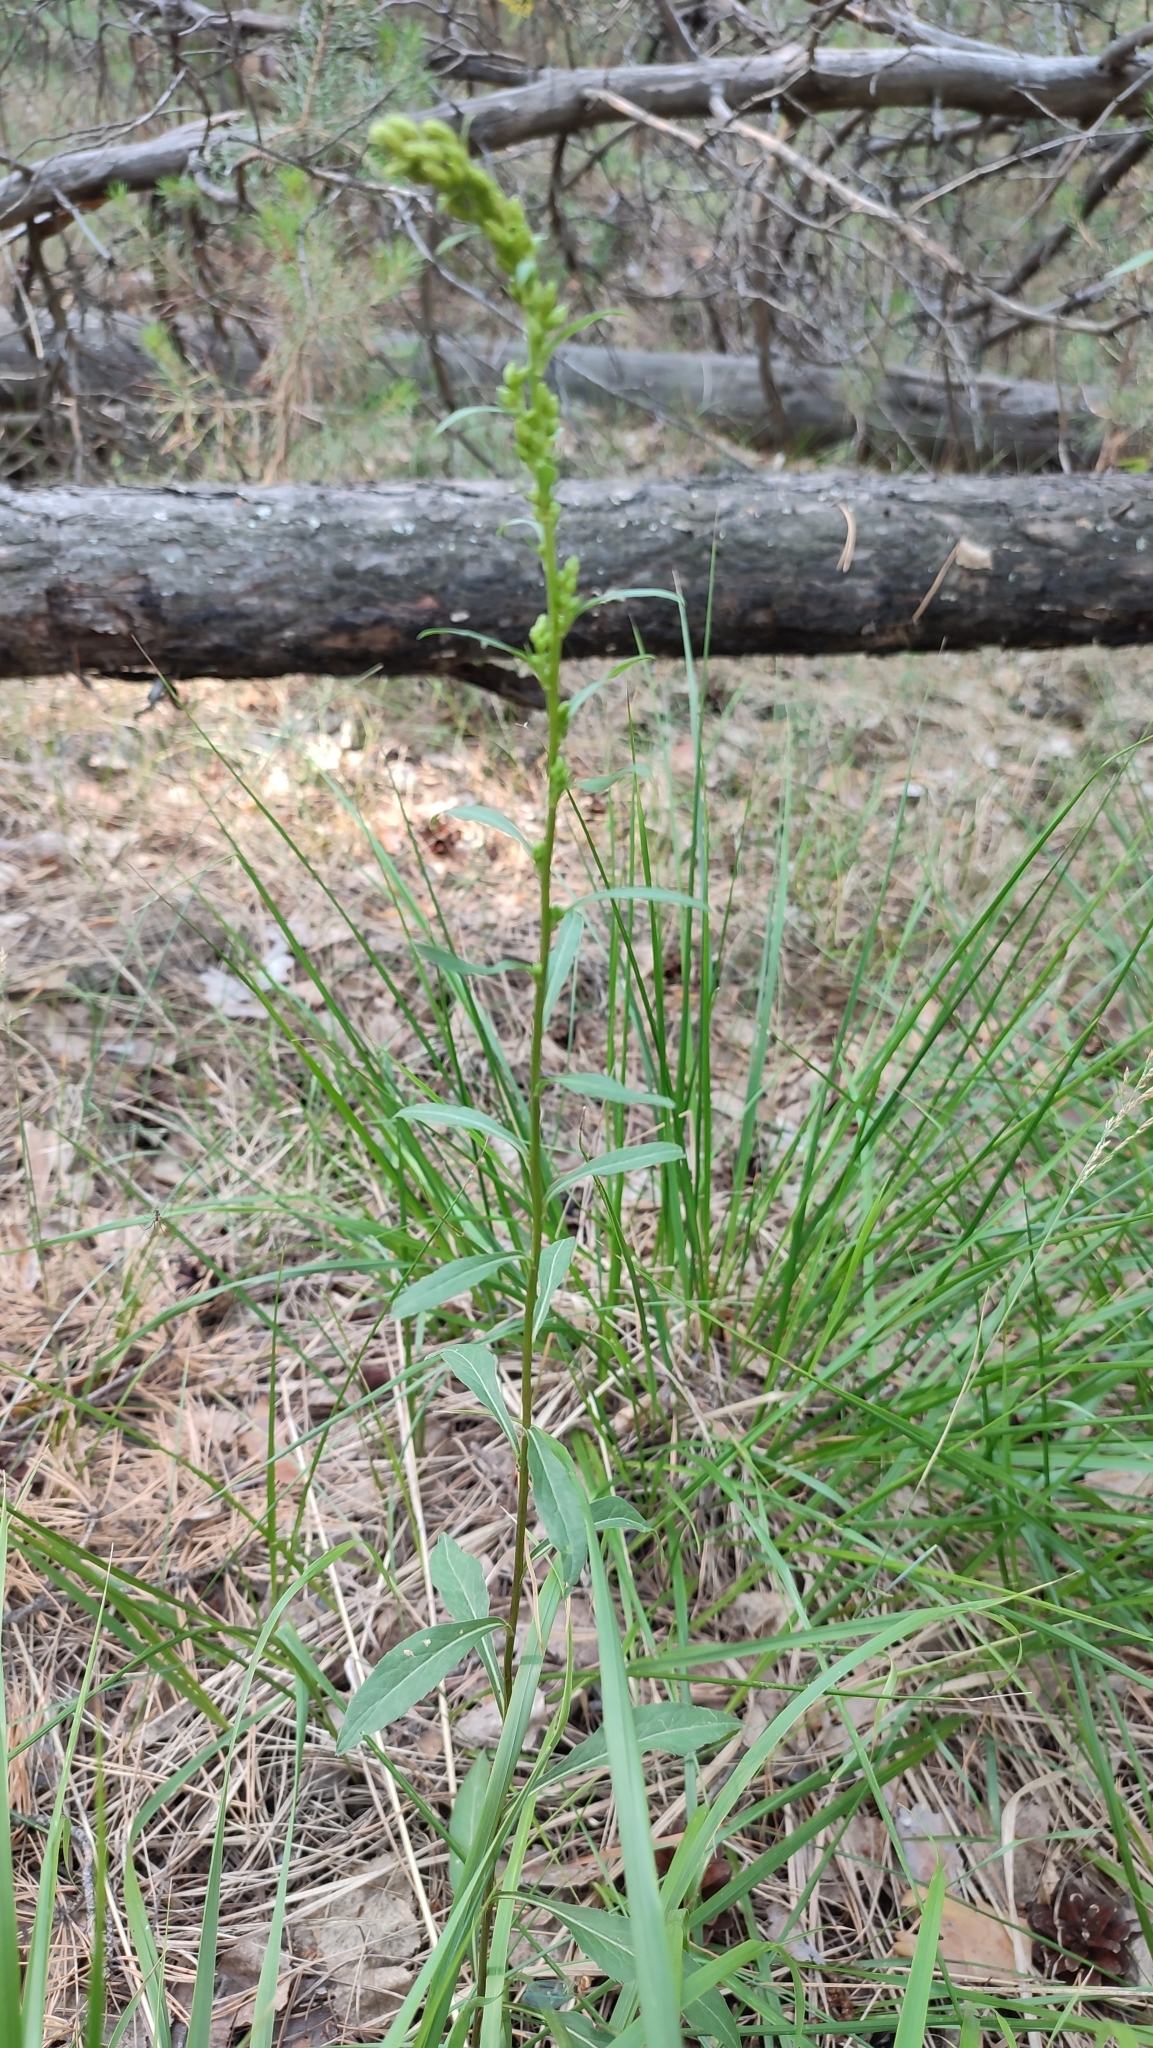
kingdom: Plantae
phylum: Tracheophyta
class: Magnoliopsida
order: Asterales
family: Asteraceae
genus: Solidago
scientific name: Solidago virgaurea
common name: Goldenrod
